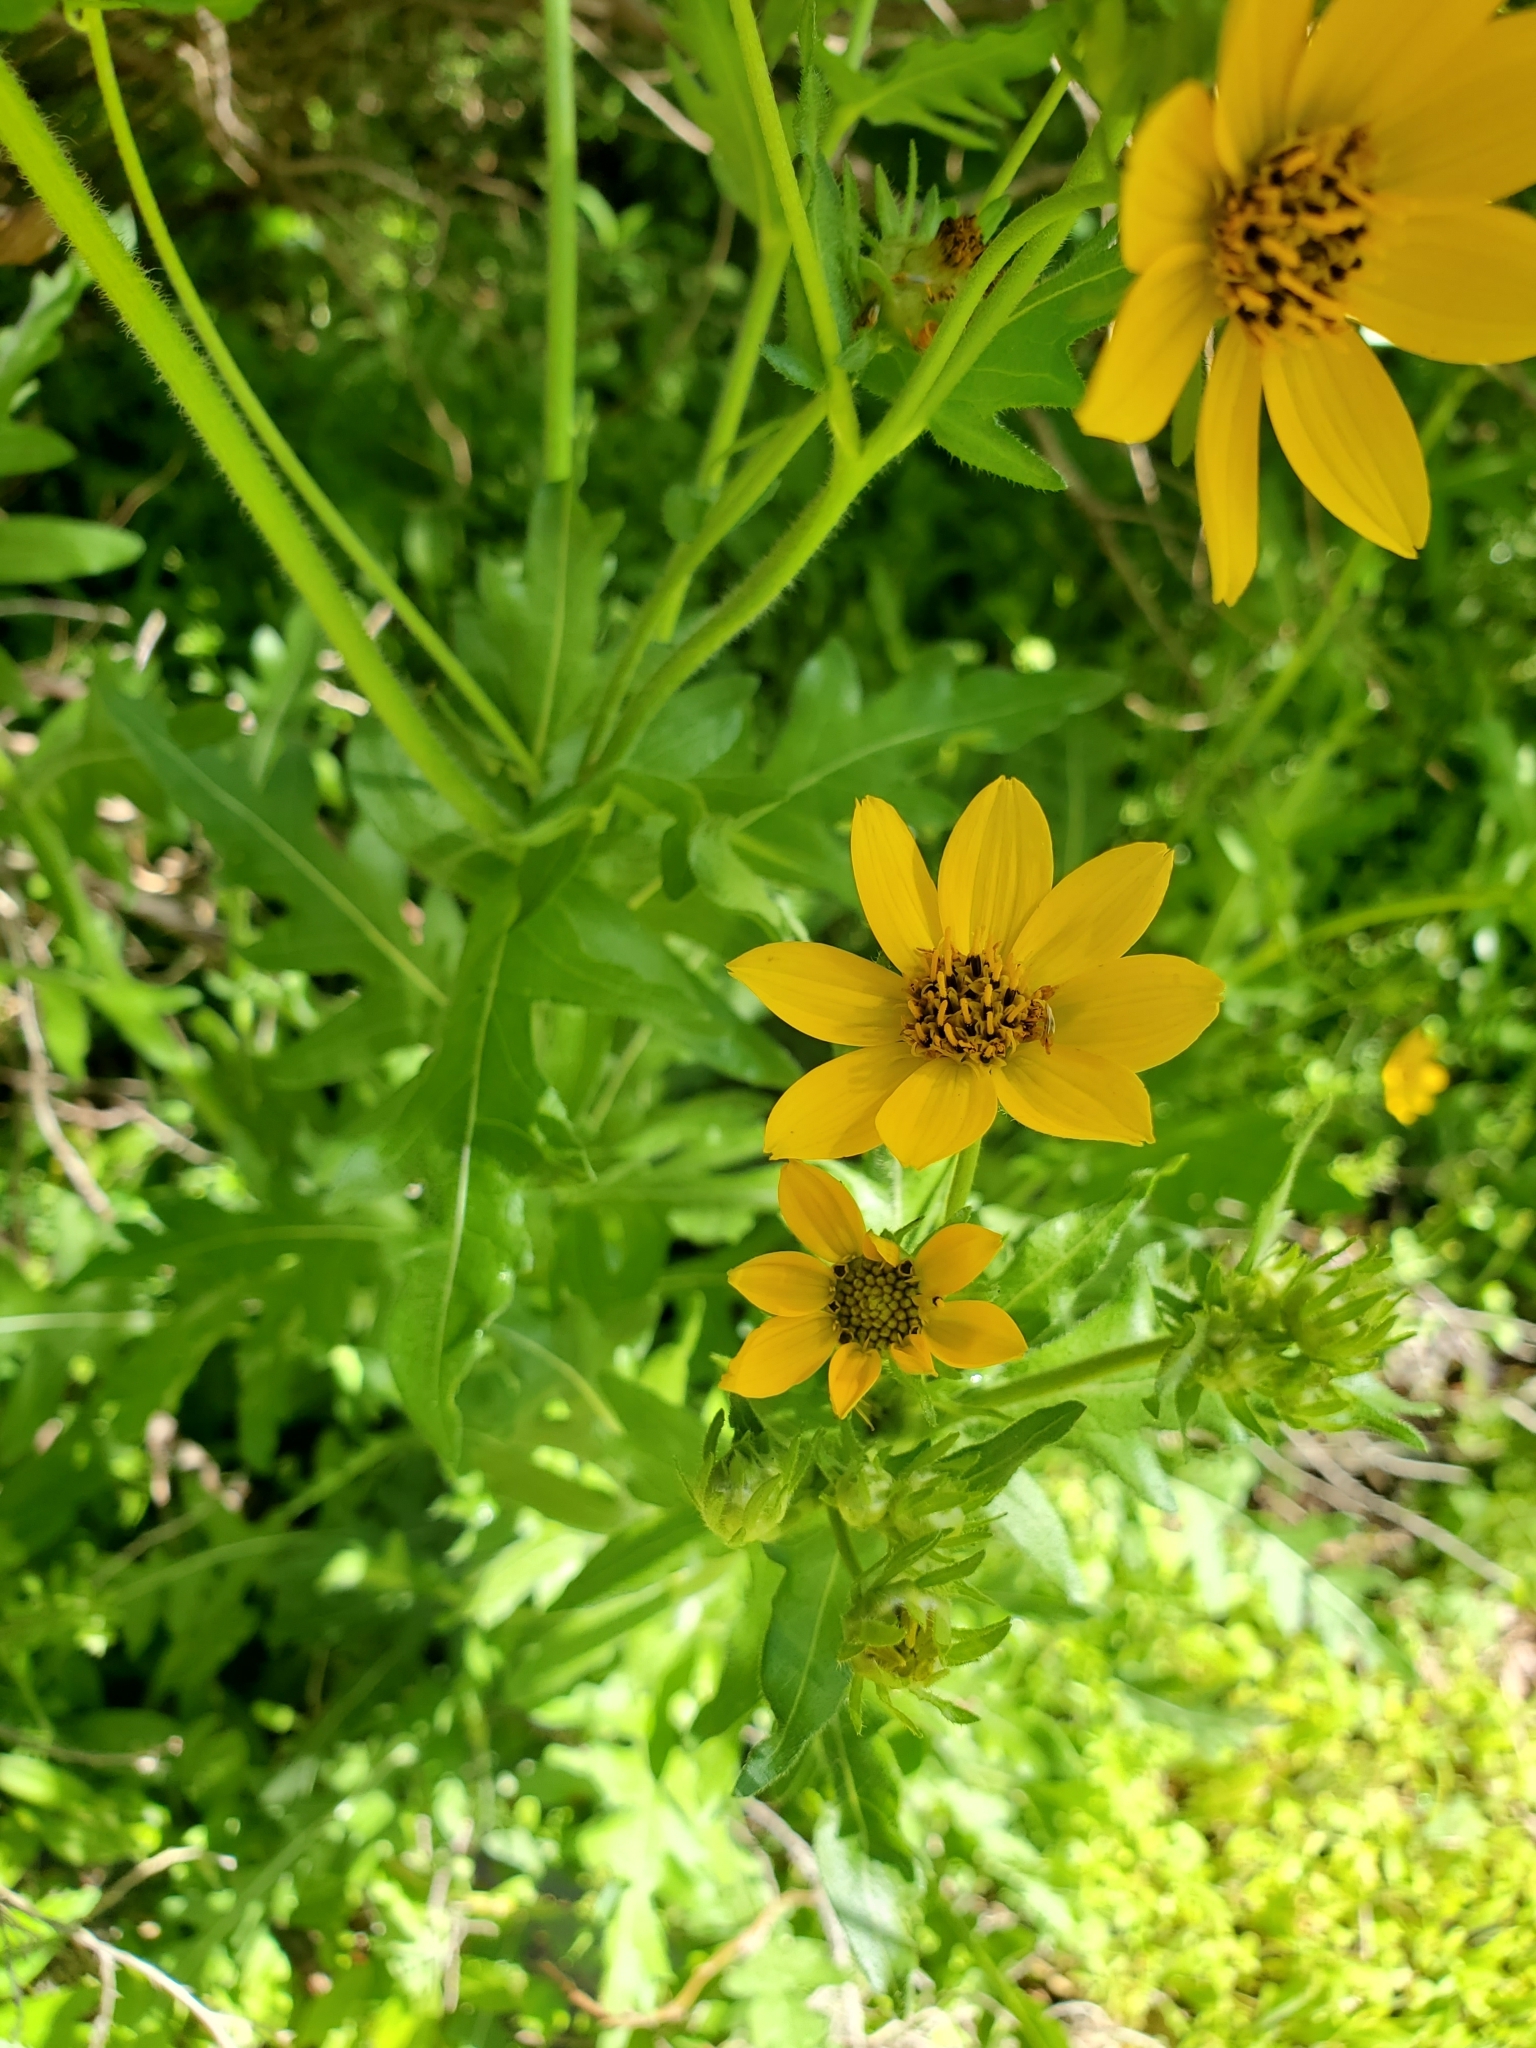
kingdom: Plantae
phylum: Tracheophyta
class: Magnoliopsida
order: Asterales
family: Asteraceae
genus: Engelmannia
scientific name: Engelmannia peristenia
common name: Engelmann's daisy
